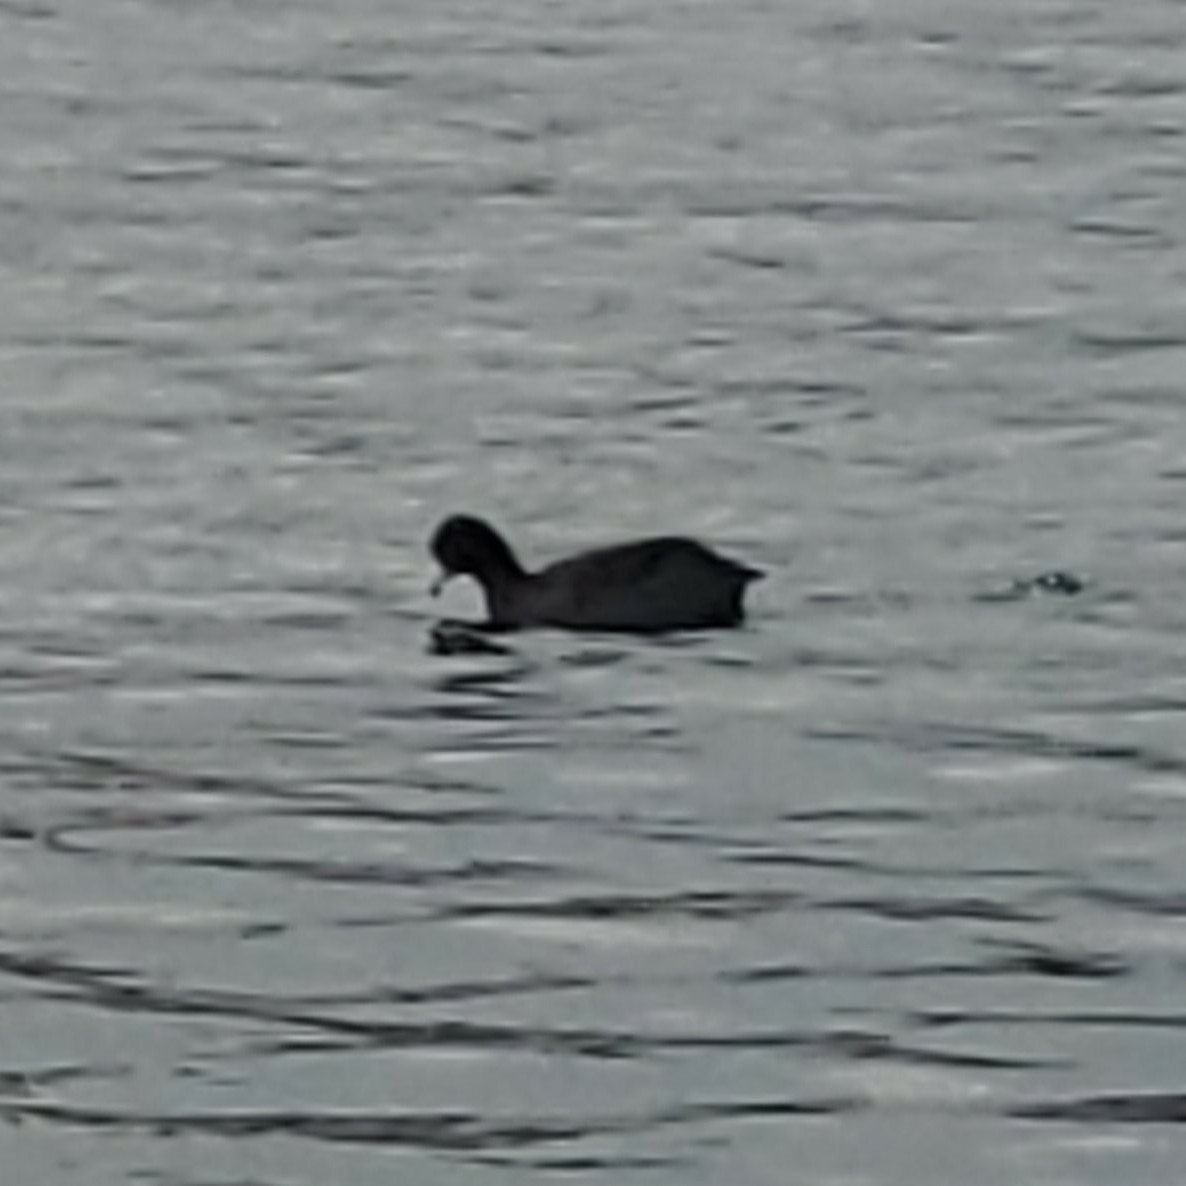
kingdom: Animalia
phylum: Chordata
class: Aves
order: Gruiformes
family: Rallidae
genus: Fulica
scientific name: Fulica americana
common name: American coot
